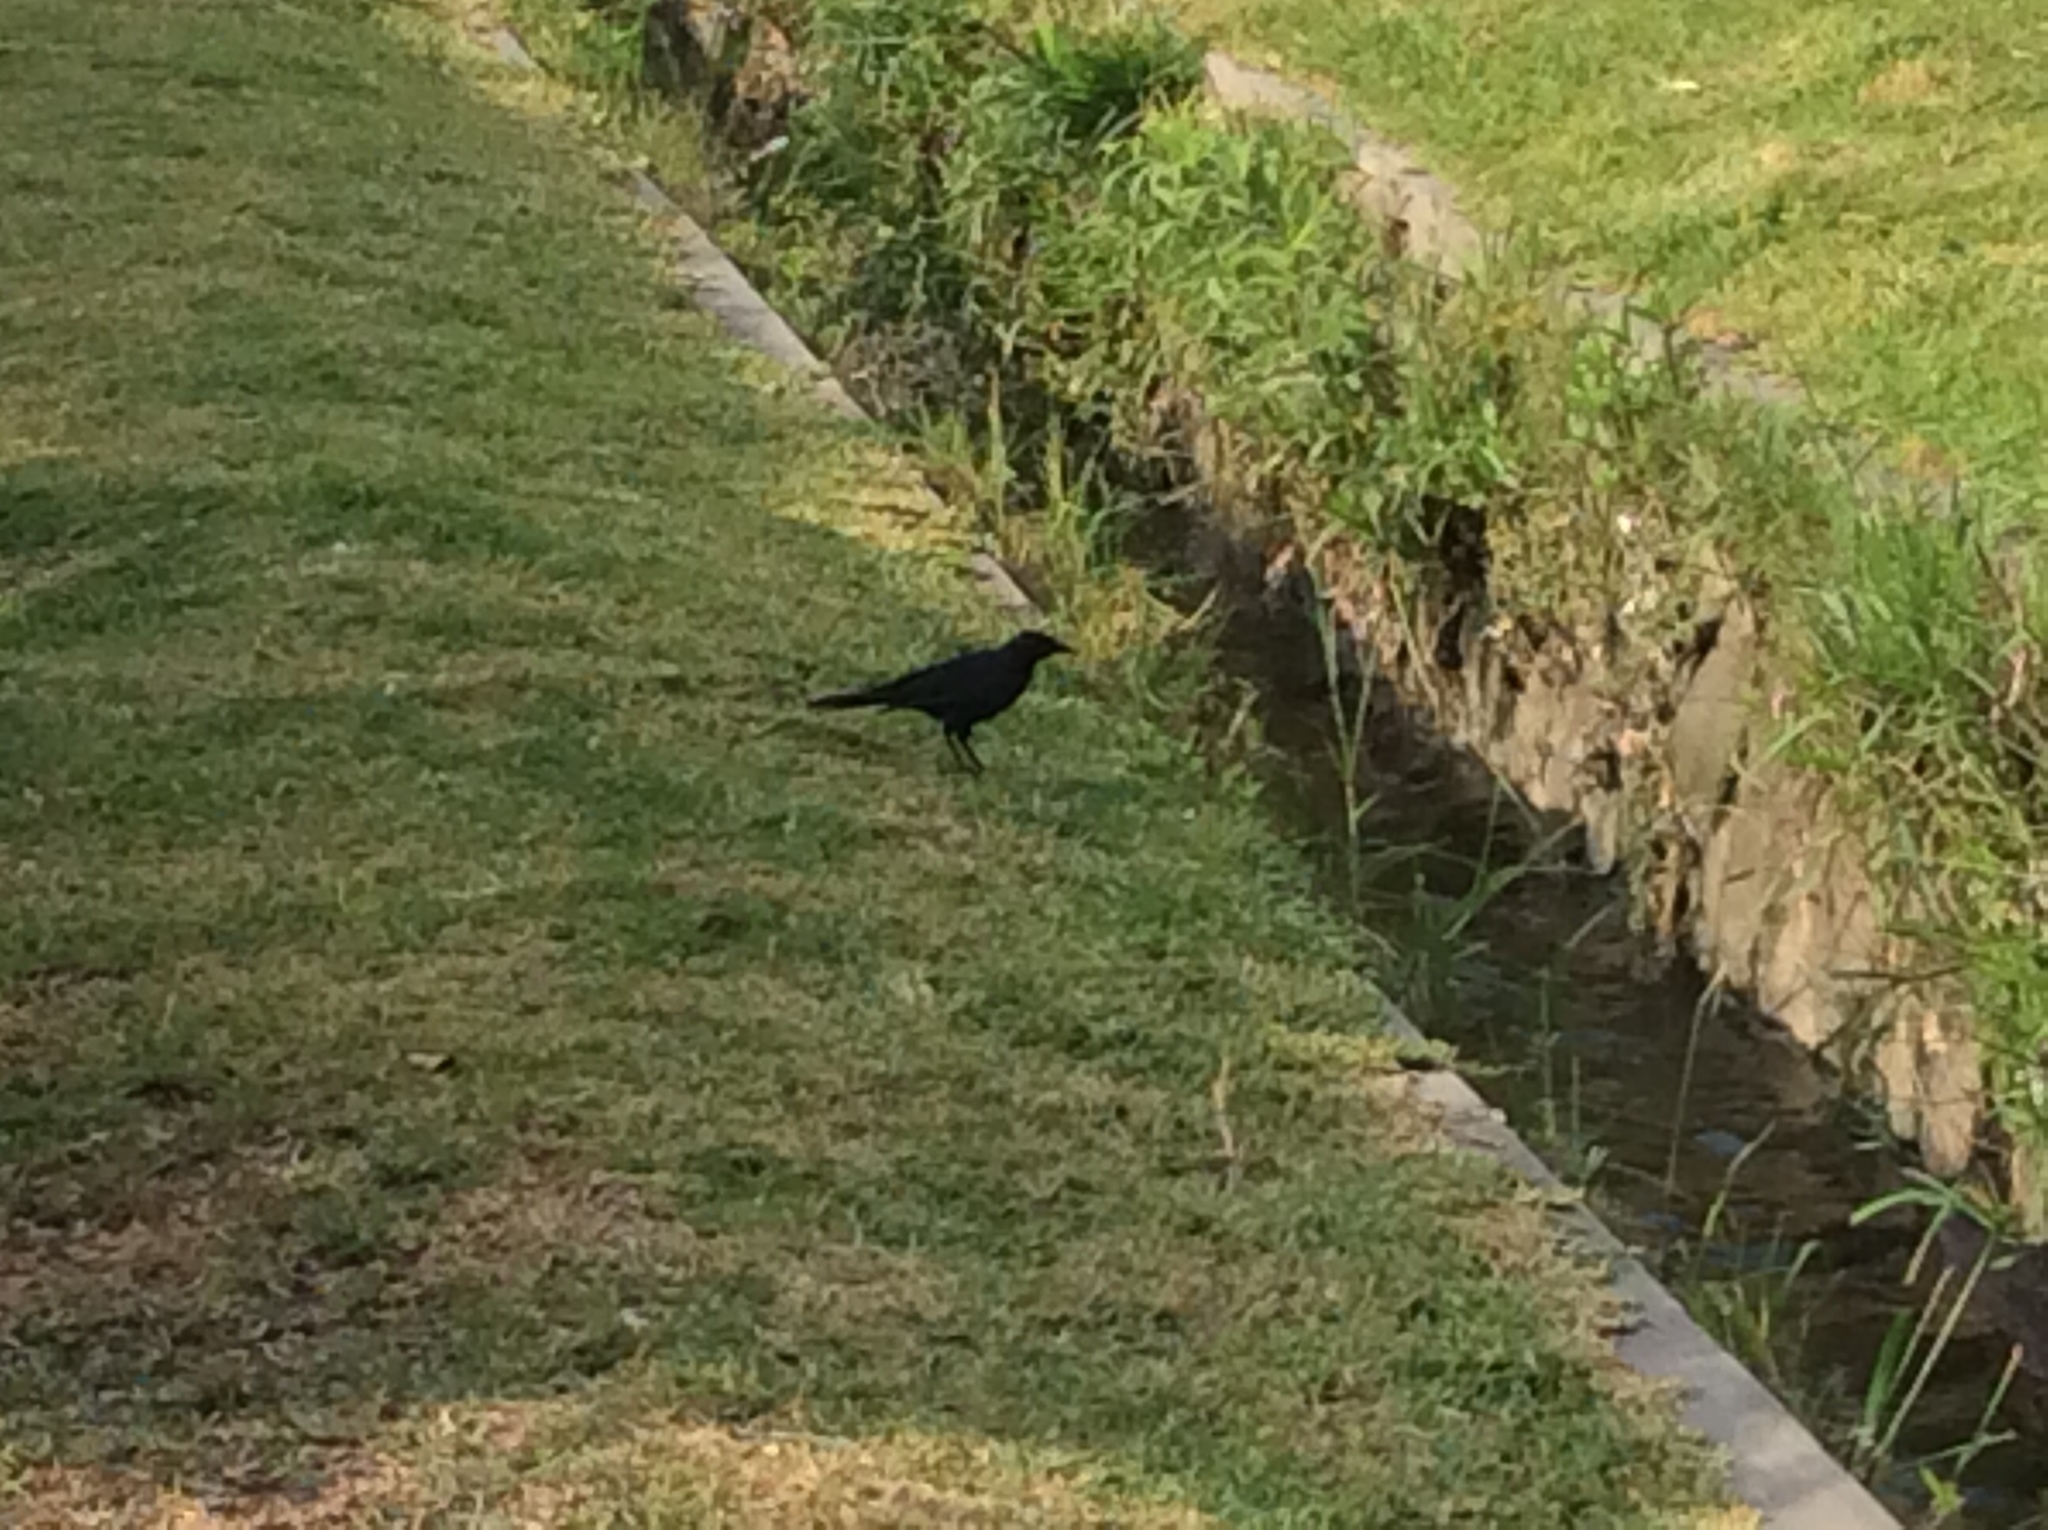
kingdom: Animalia
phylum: Chordata
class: Aves
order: Passeriformes
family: Icteridae
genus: Dives
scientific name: Dives warczewiczi
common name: Scrub blackbird
